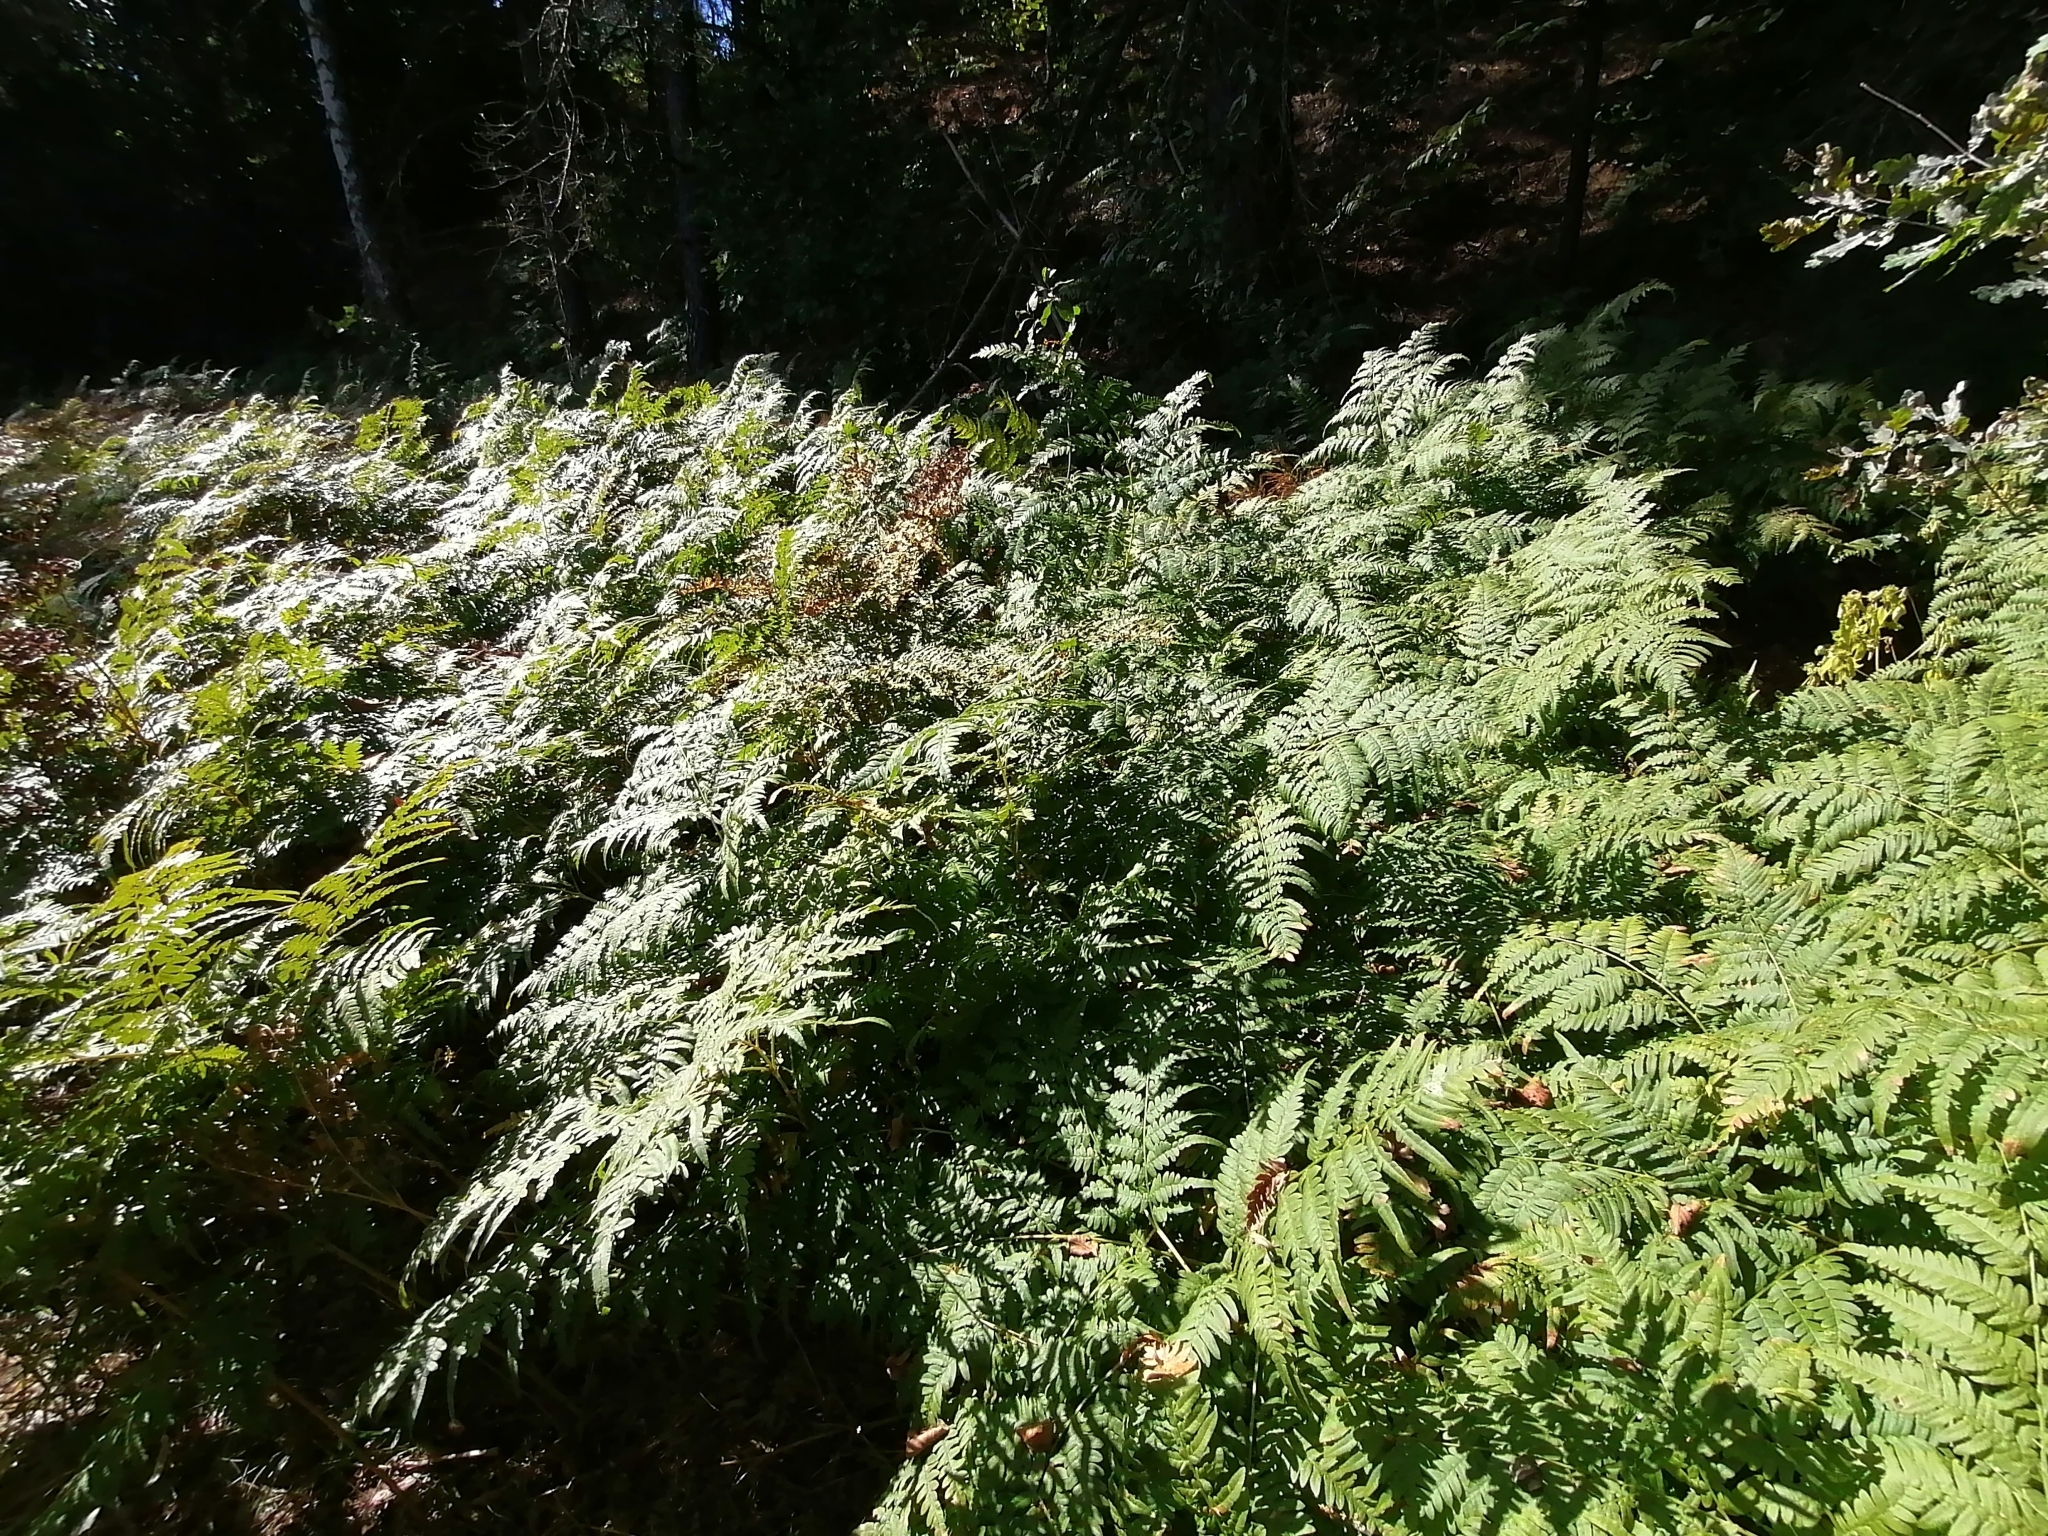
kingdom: Plantae
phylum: Tracheophyta
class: Polypodiopsida
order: Polypodiales
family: Dennstaedtiaceae
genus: Pteridium
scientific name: Pteridium aquilinum
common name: Bracken
